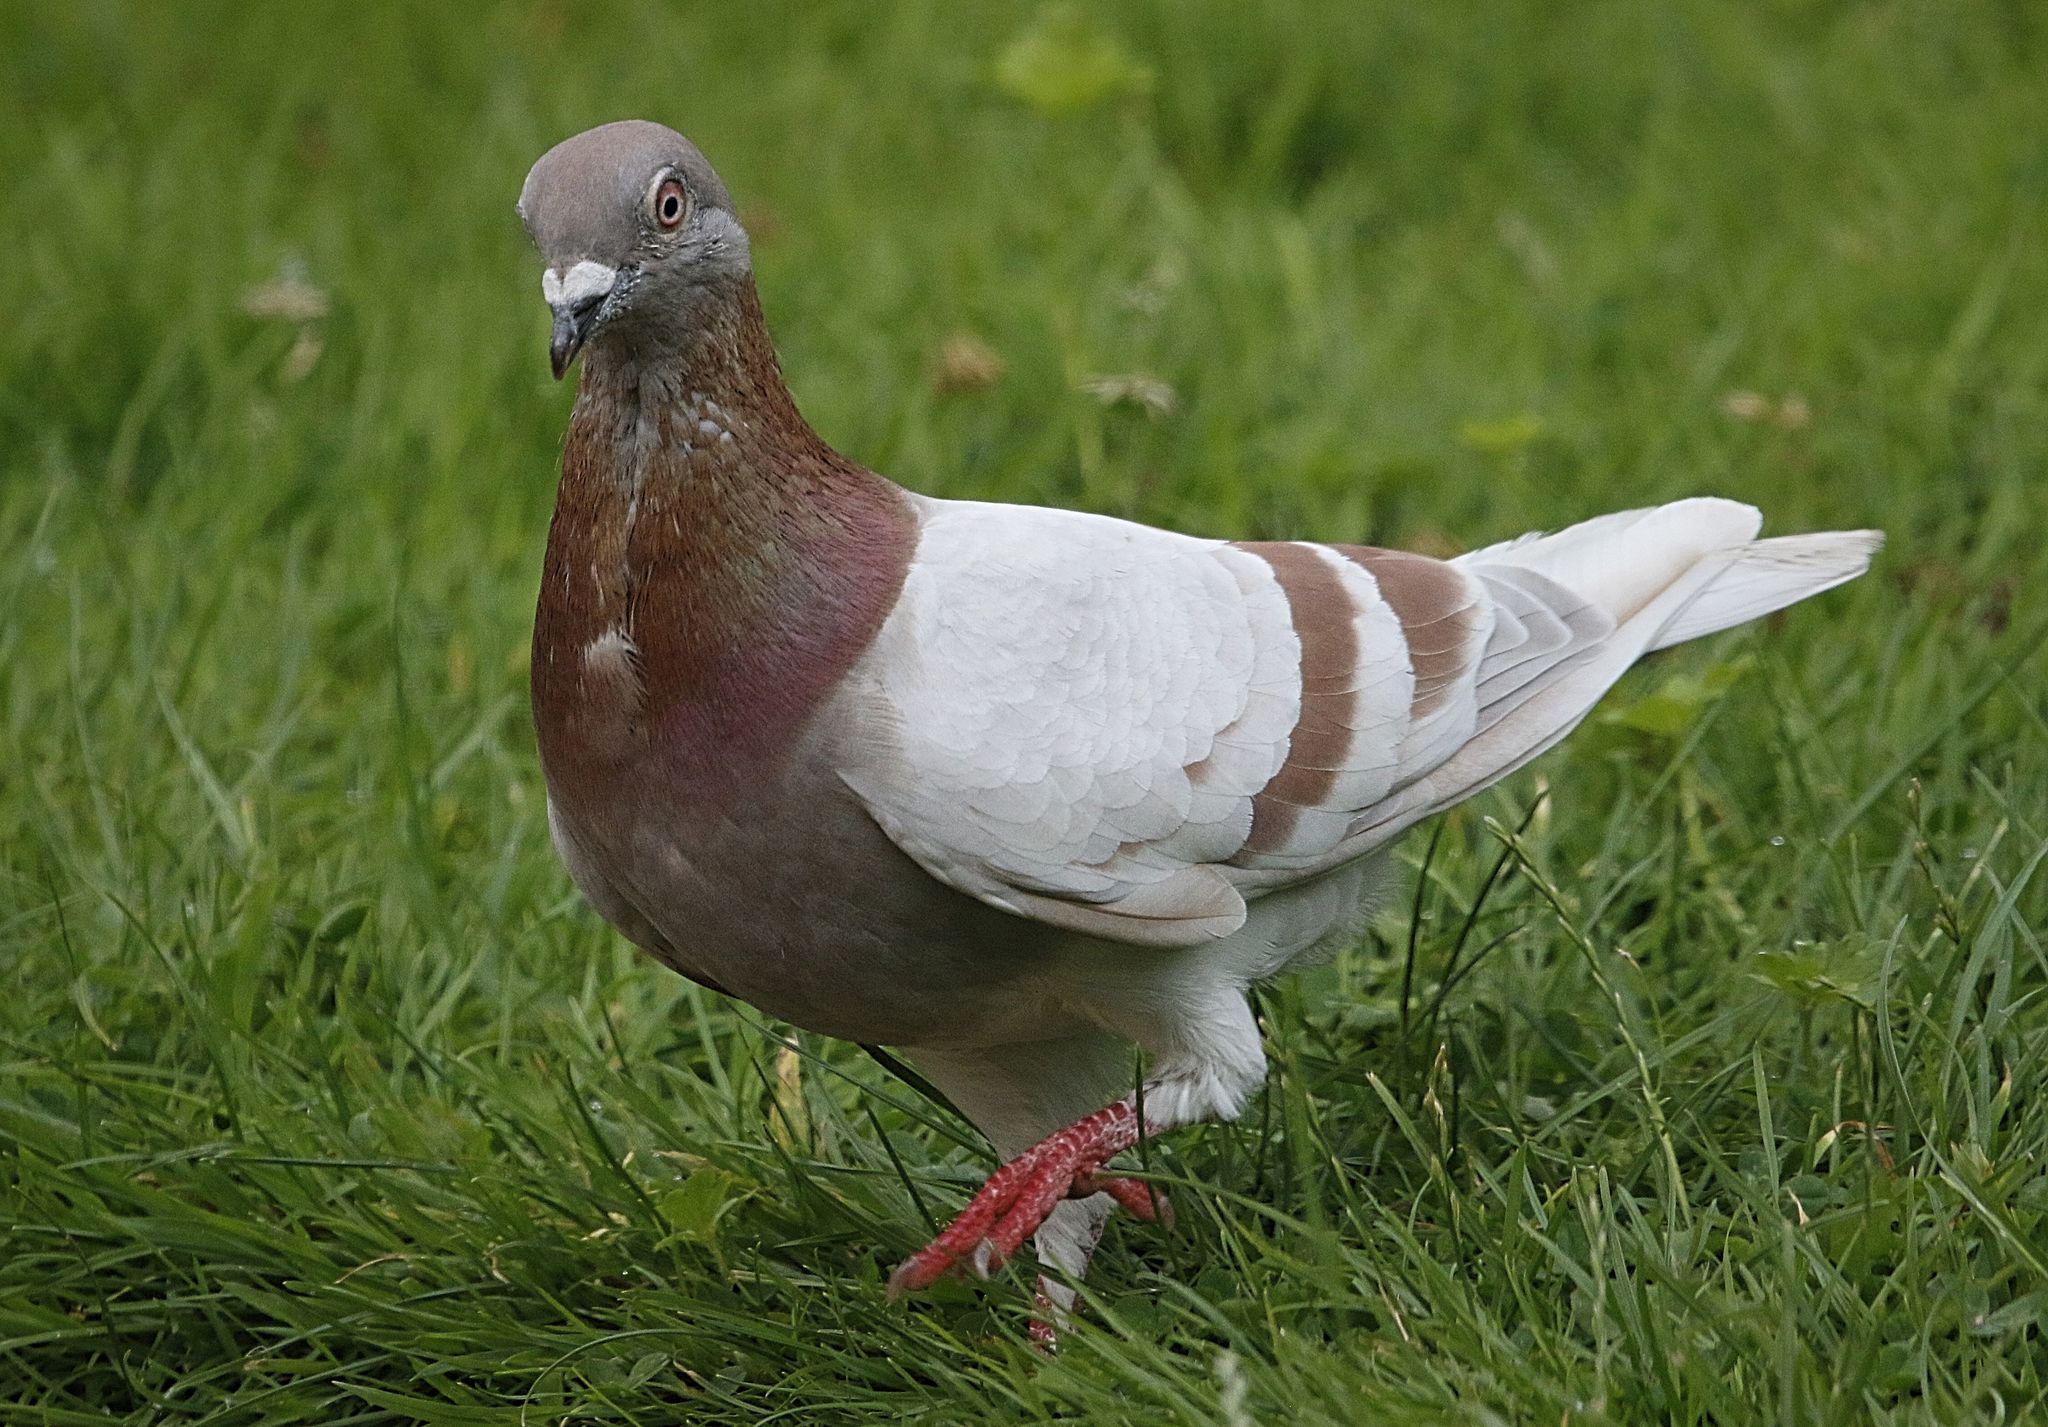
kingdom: Animalia
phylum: Chordata
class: Aves
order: Columbiformes
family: Columbidae
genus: Columba
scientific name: Columba livia
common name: Rock pigeon
